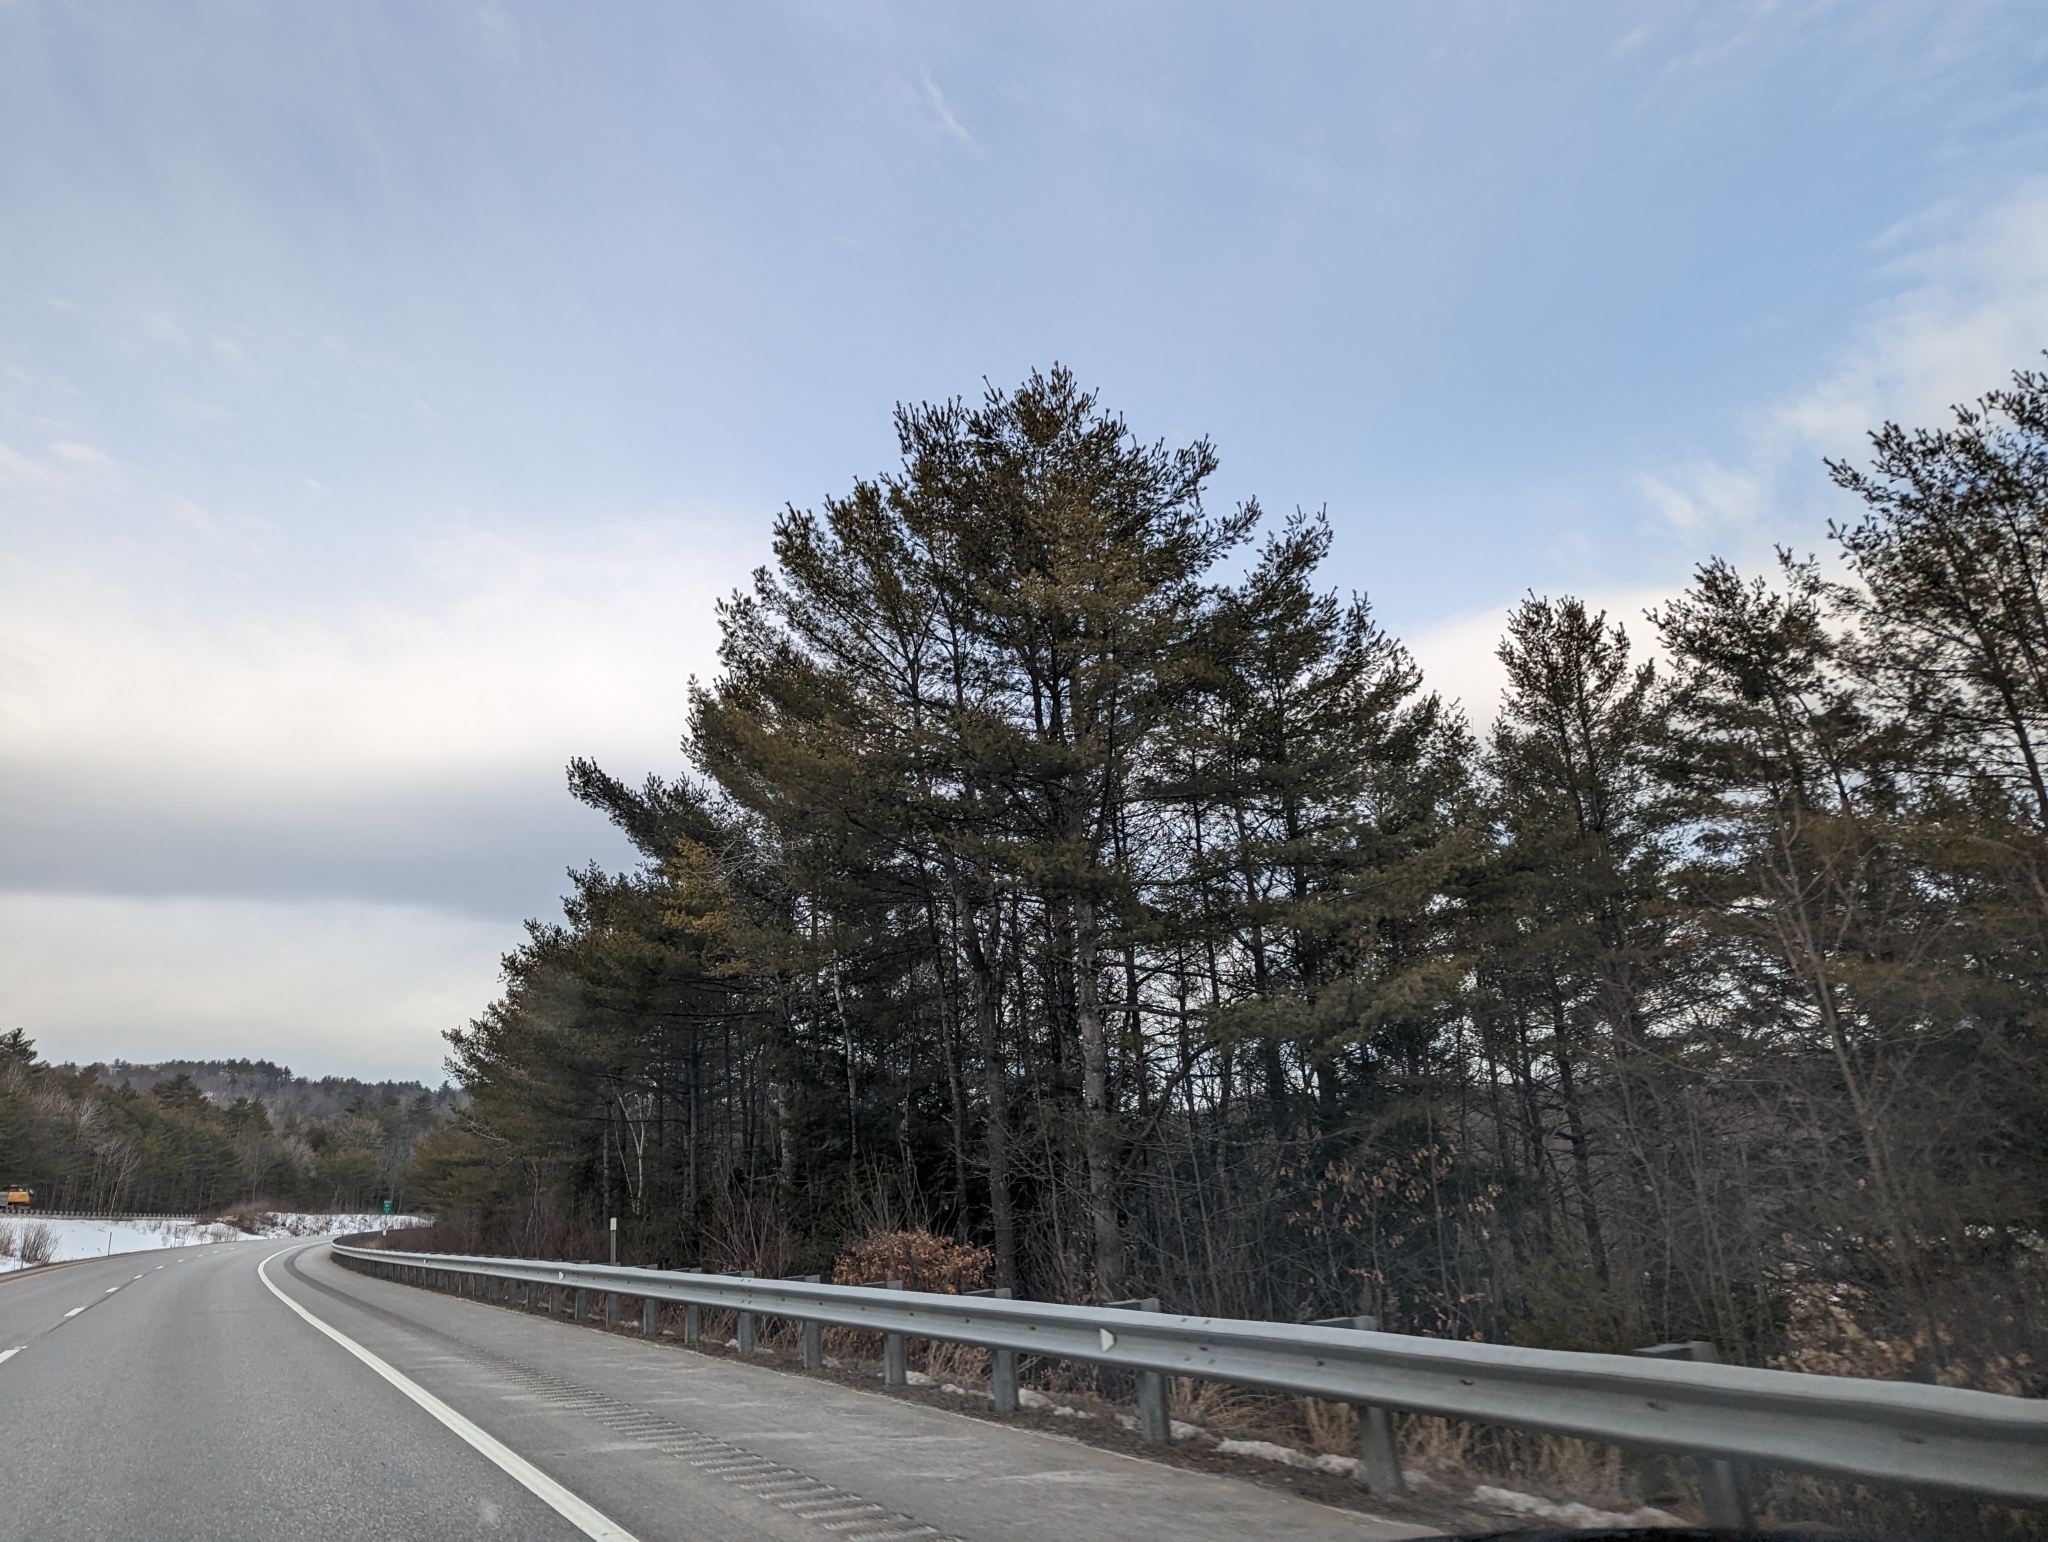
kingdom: Plantae
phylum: Tracheophyta
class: Pinopsida
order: Pinales
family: Pinaceae
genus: Pinus
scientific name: Pinus strobus
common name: Weymouth pine
